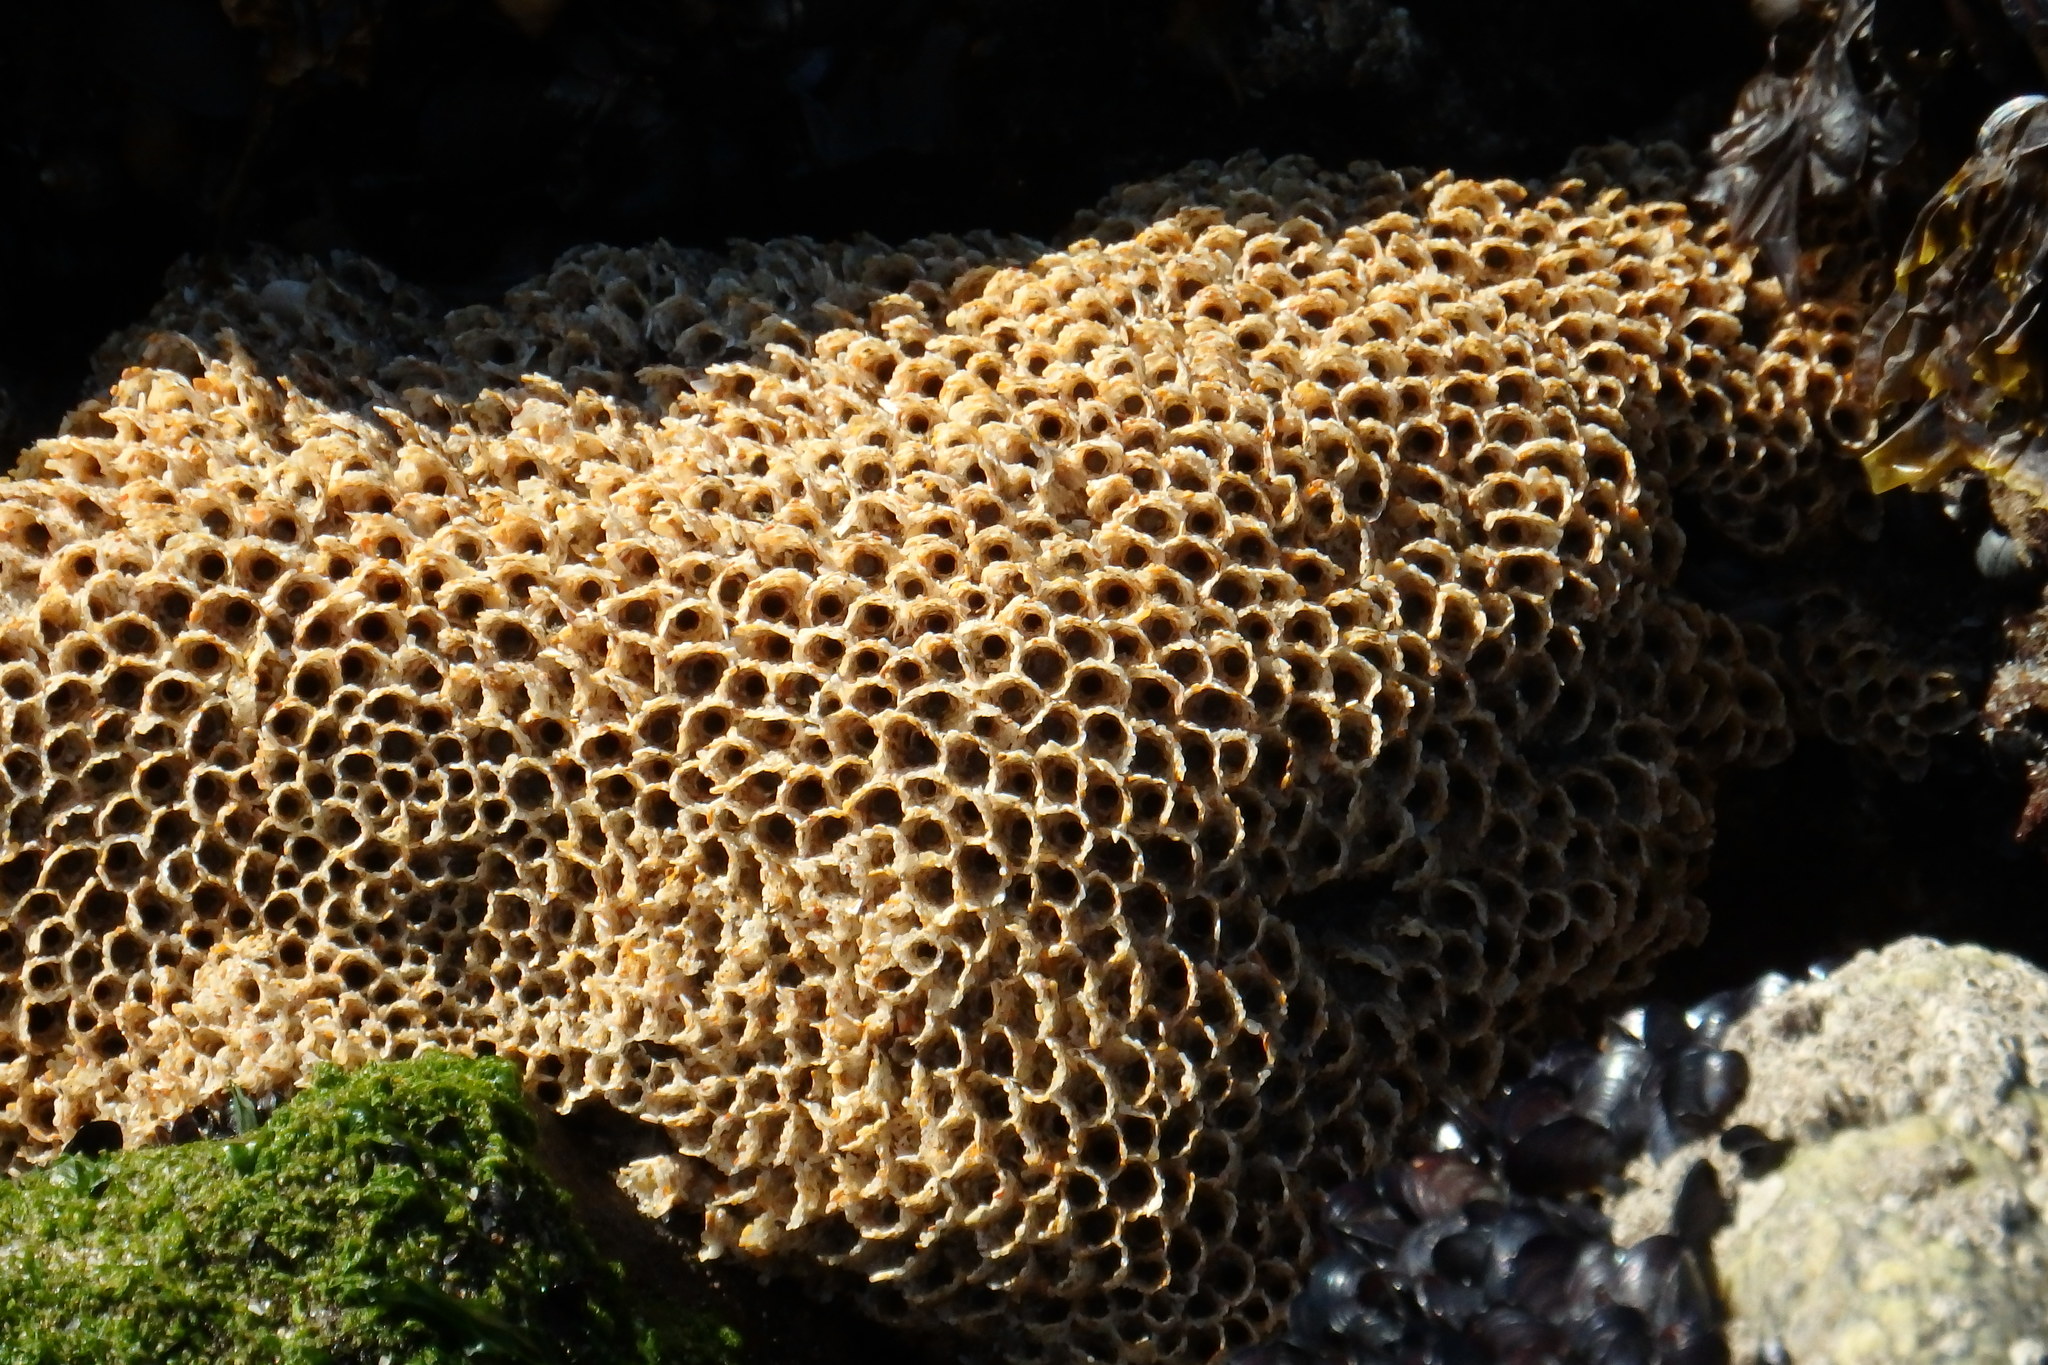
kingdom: Animalia
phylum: Annelida
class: Polychaeta
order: Sabellida
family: Sabellariidae
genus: Sabellaria
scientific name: Sabellaria alveolata
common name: Honeycomb worm
